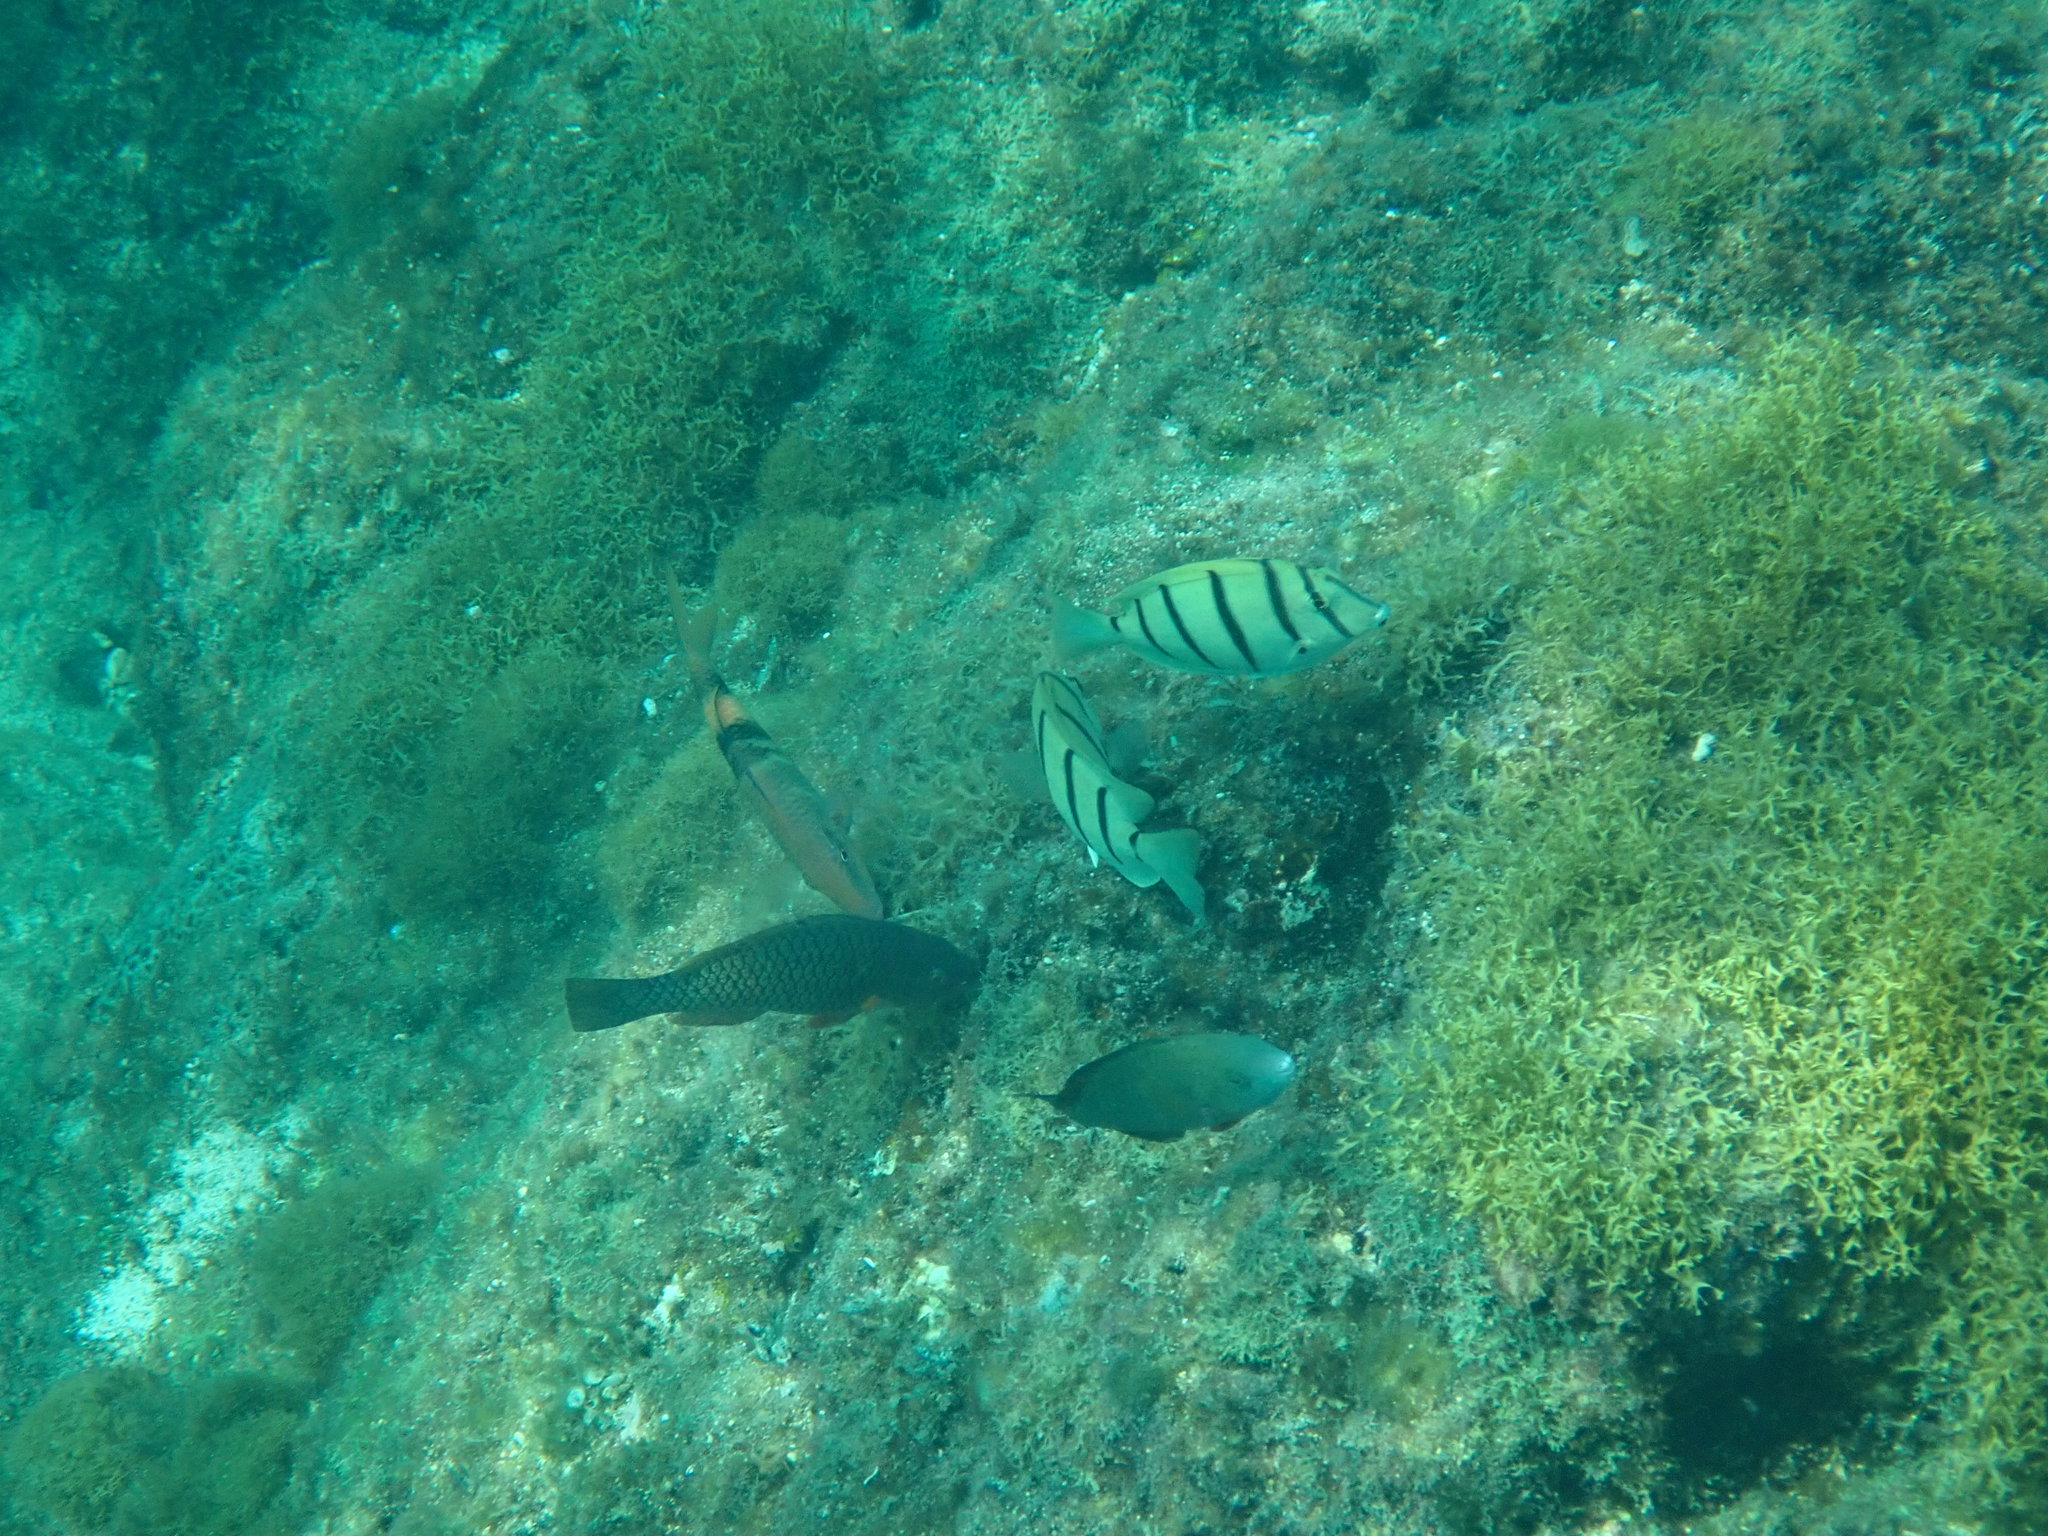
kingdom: Animalia
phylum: Chordata
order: Perciformes
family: Acanthuridae
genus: Acanthurus
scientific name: Acanthurus triostegus
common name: Convict surgeonfish
